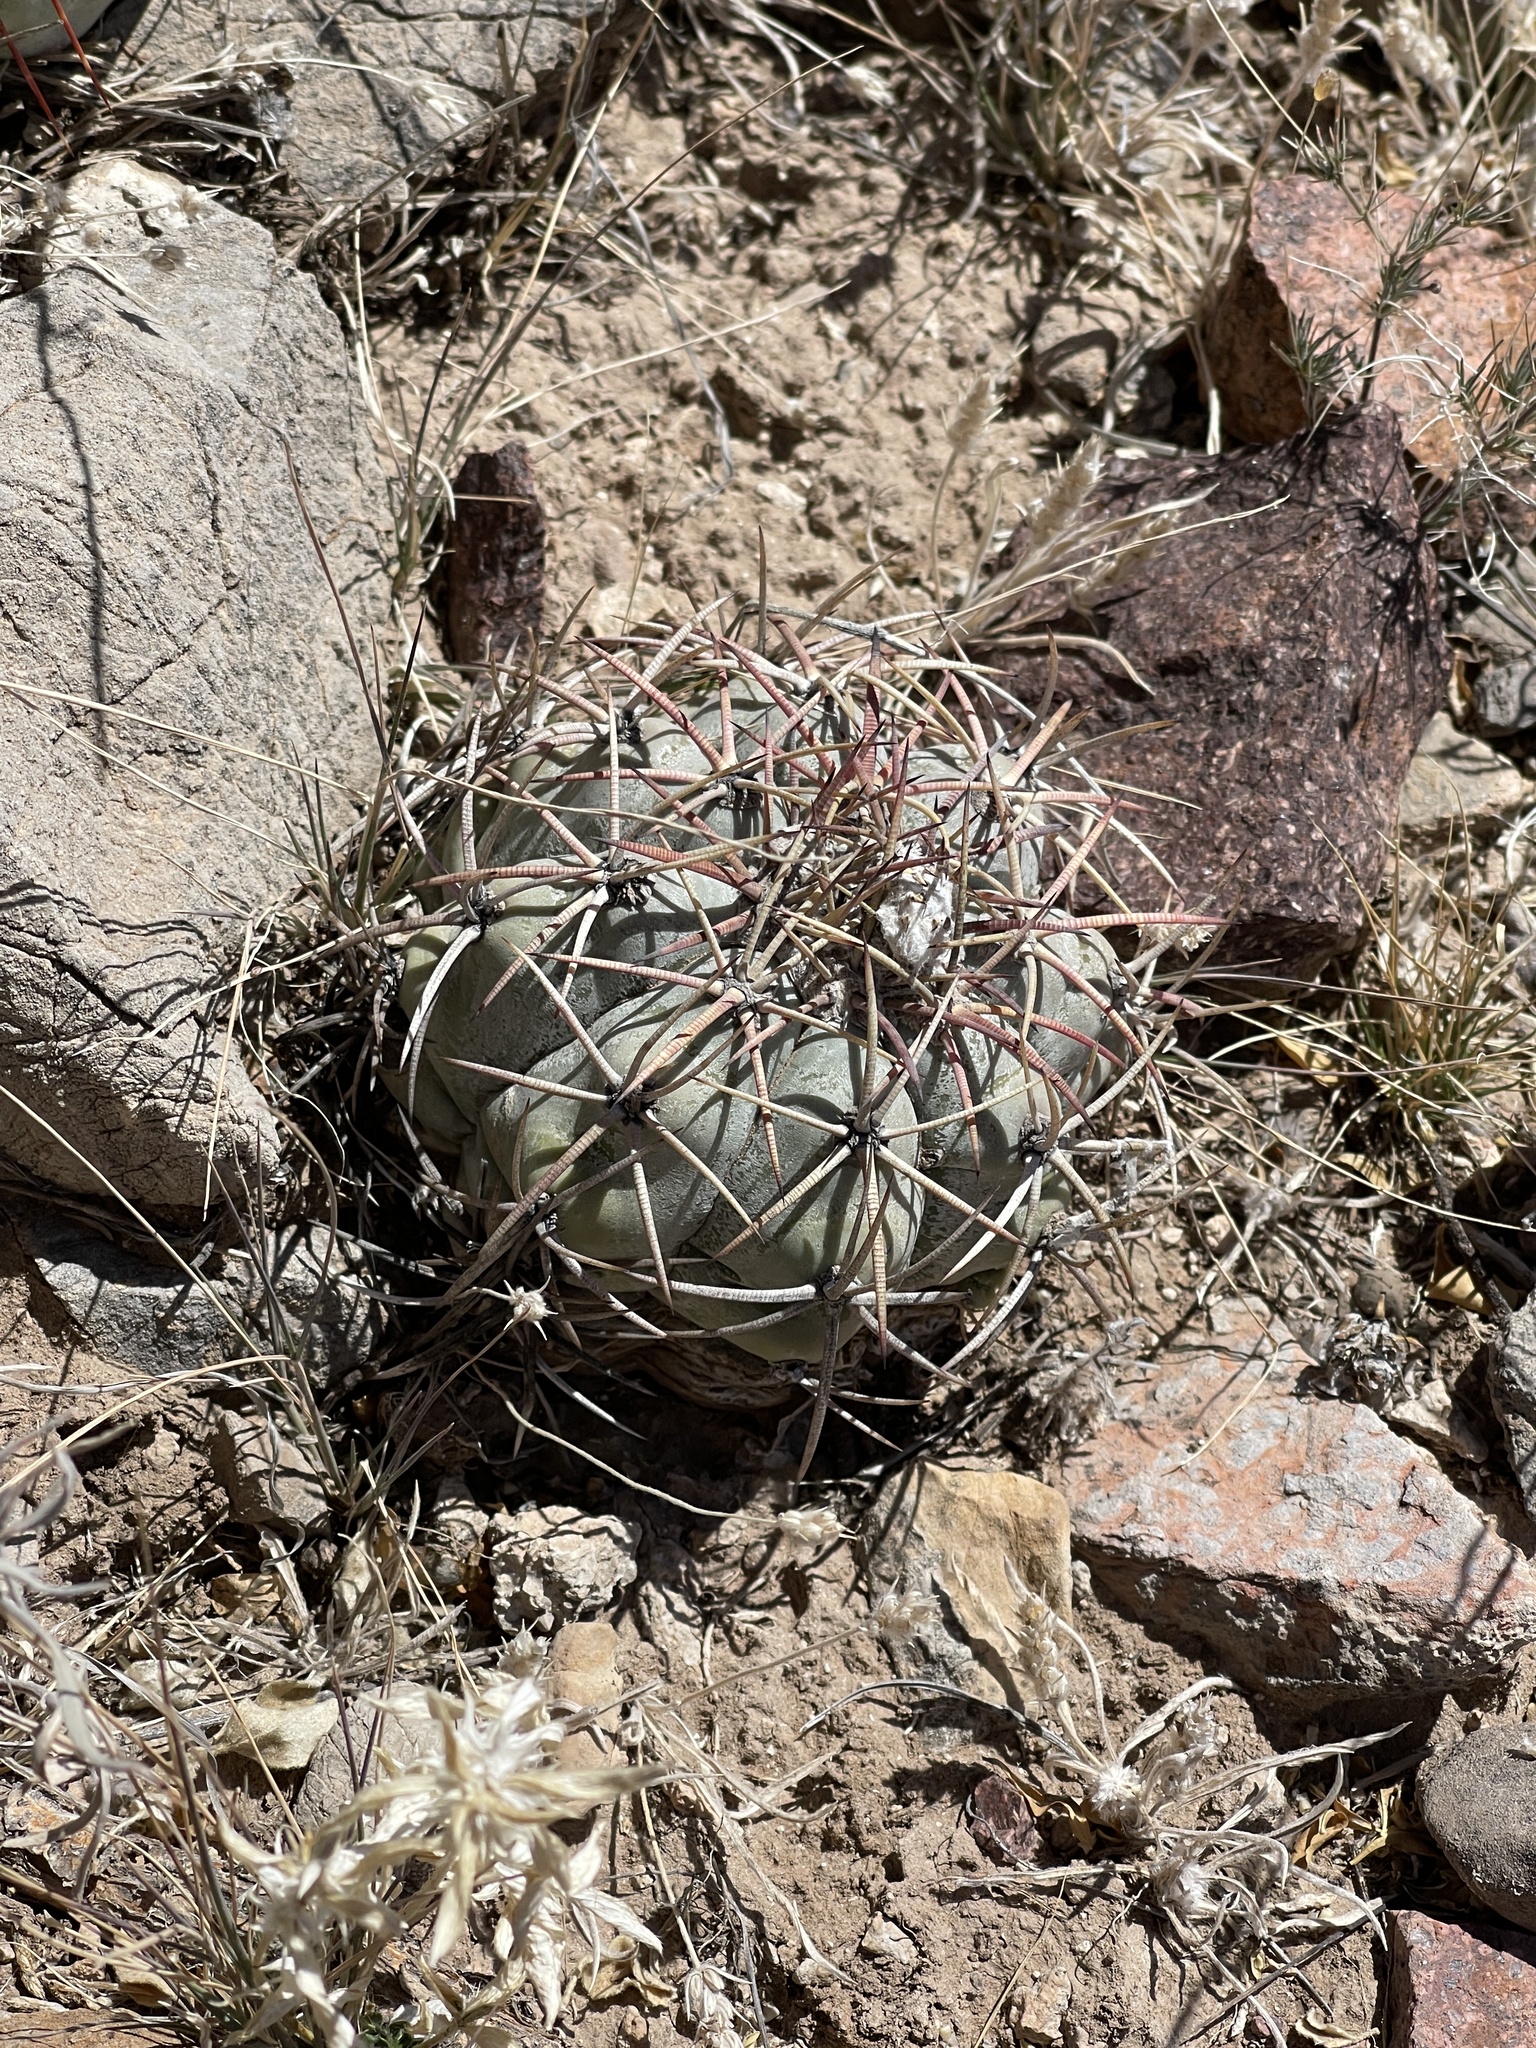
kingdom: Plantae
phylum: Tracheophyta
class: Magnoliopsida
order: Caryophyllales
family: Cactaceae
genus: Echinocactus
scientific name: Echinocactus horizonthalonius
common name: Devilshead
